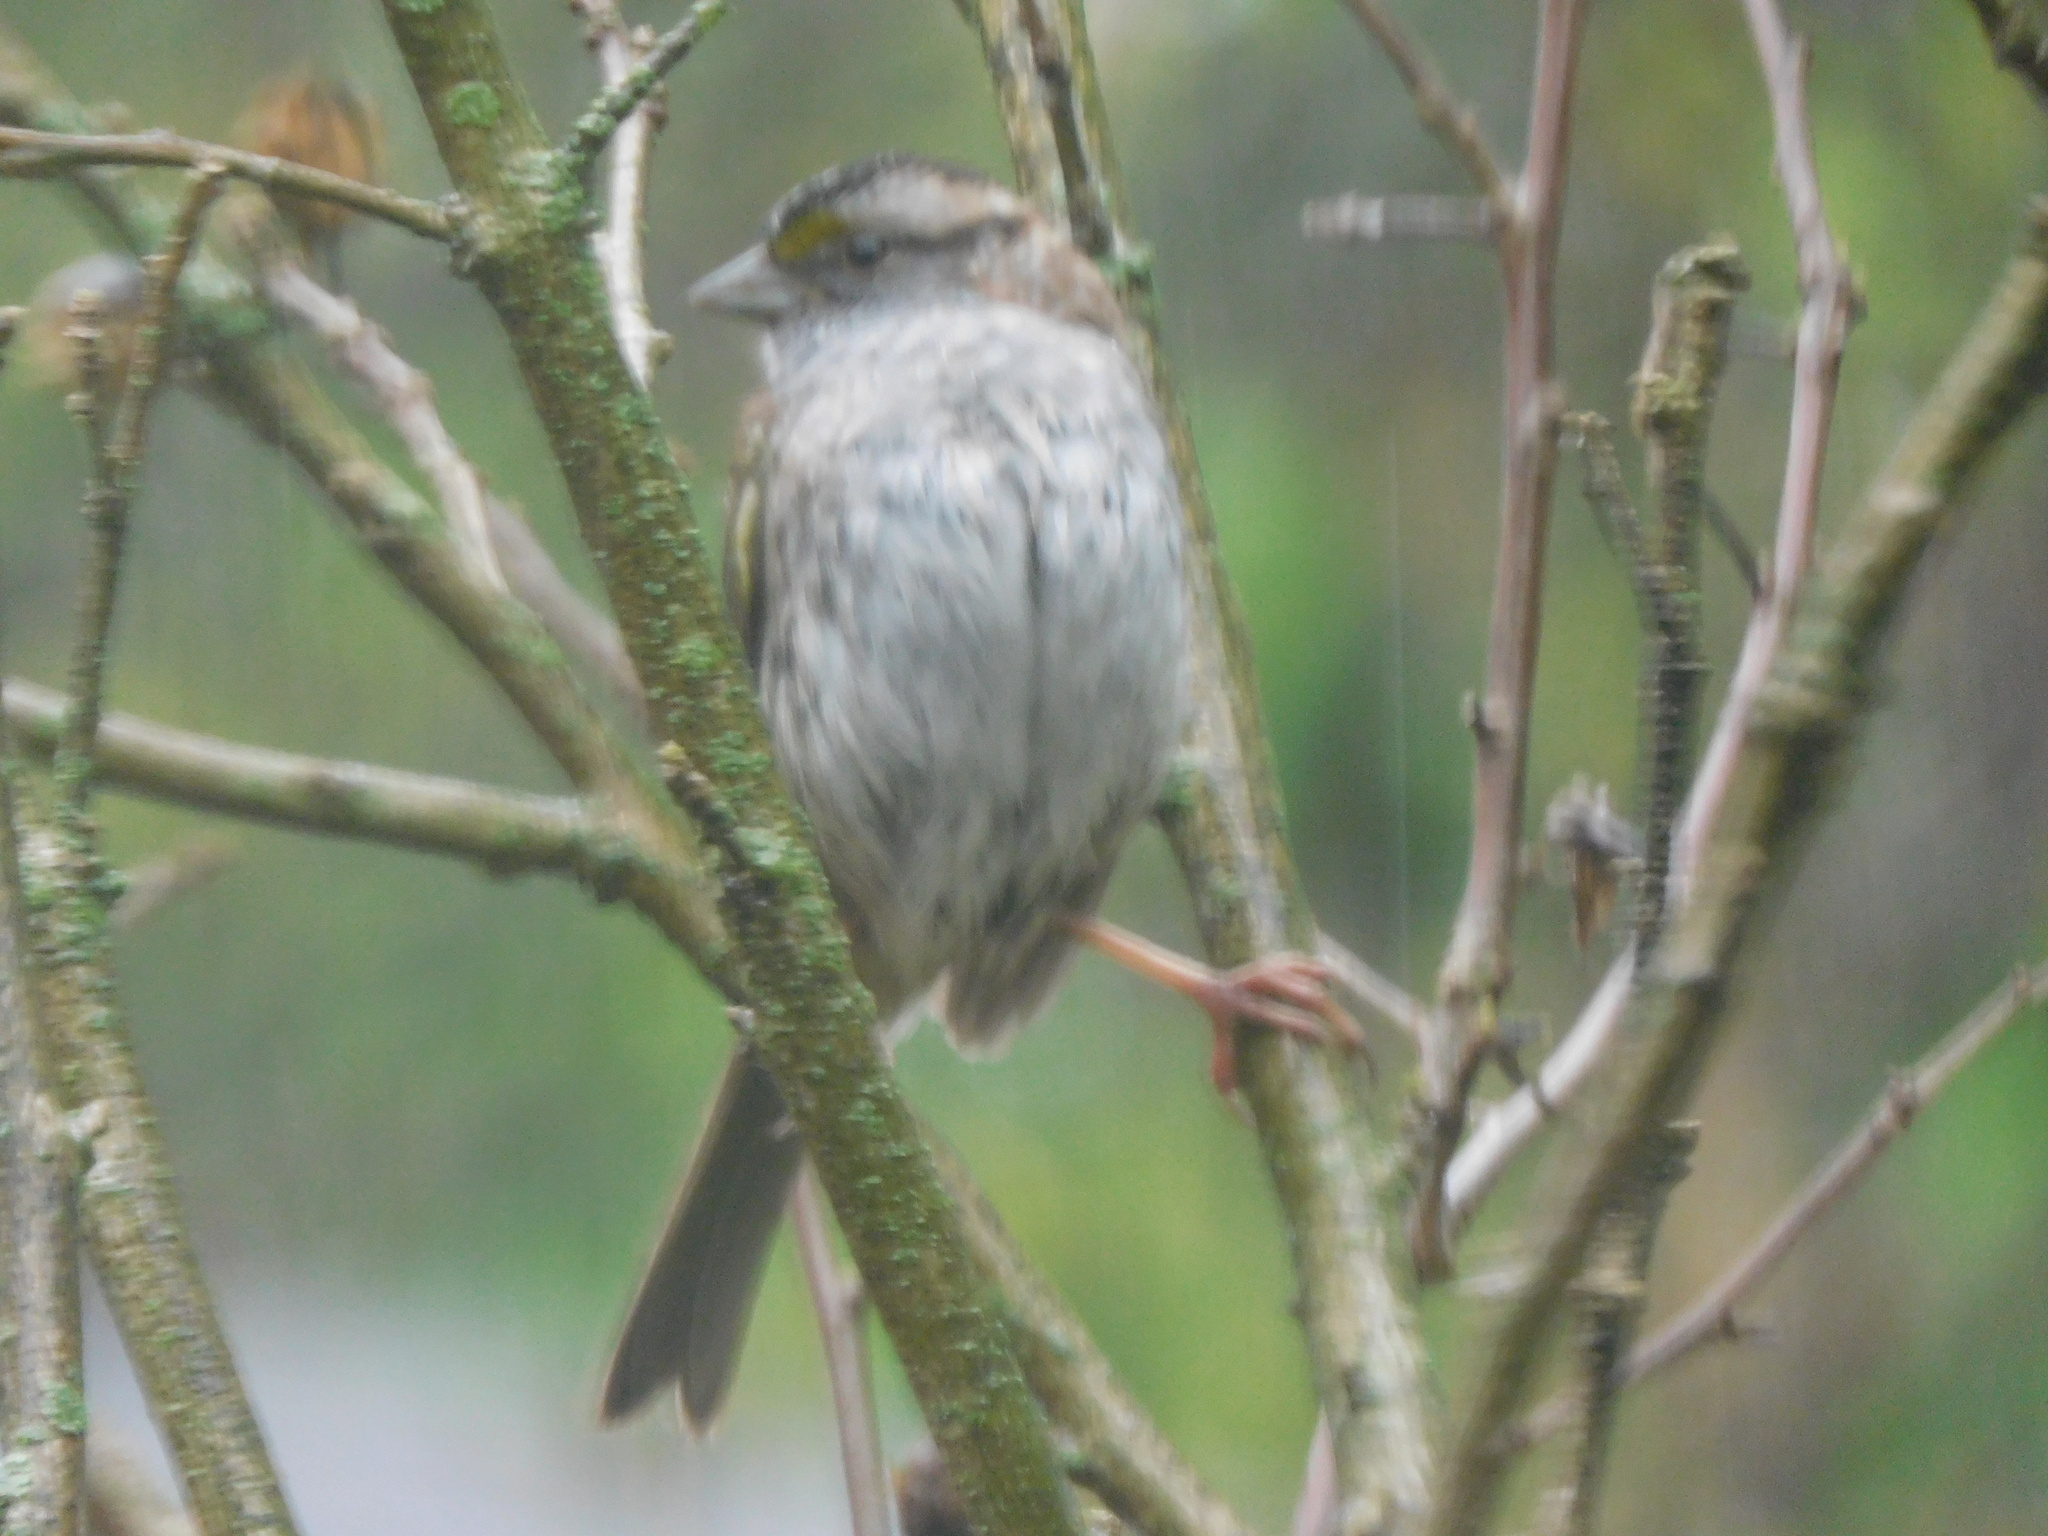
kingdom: Animalia
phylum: Chordata
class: Aves
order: Passeriformes
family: Passerellidae
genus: Zonotrichia
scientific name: Zonotrichia albicollis
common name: White-throated sparrow
